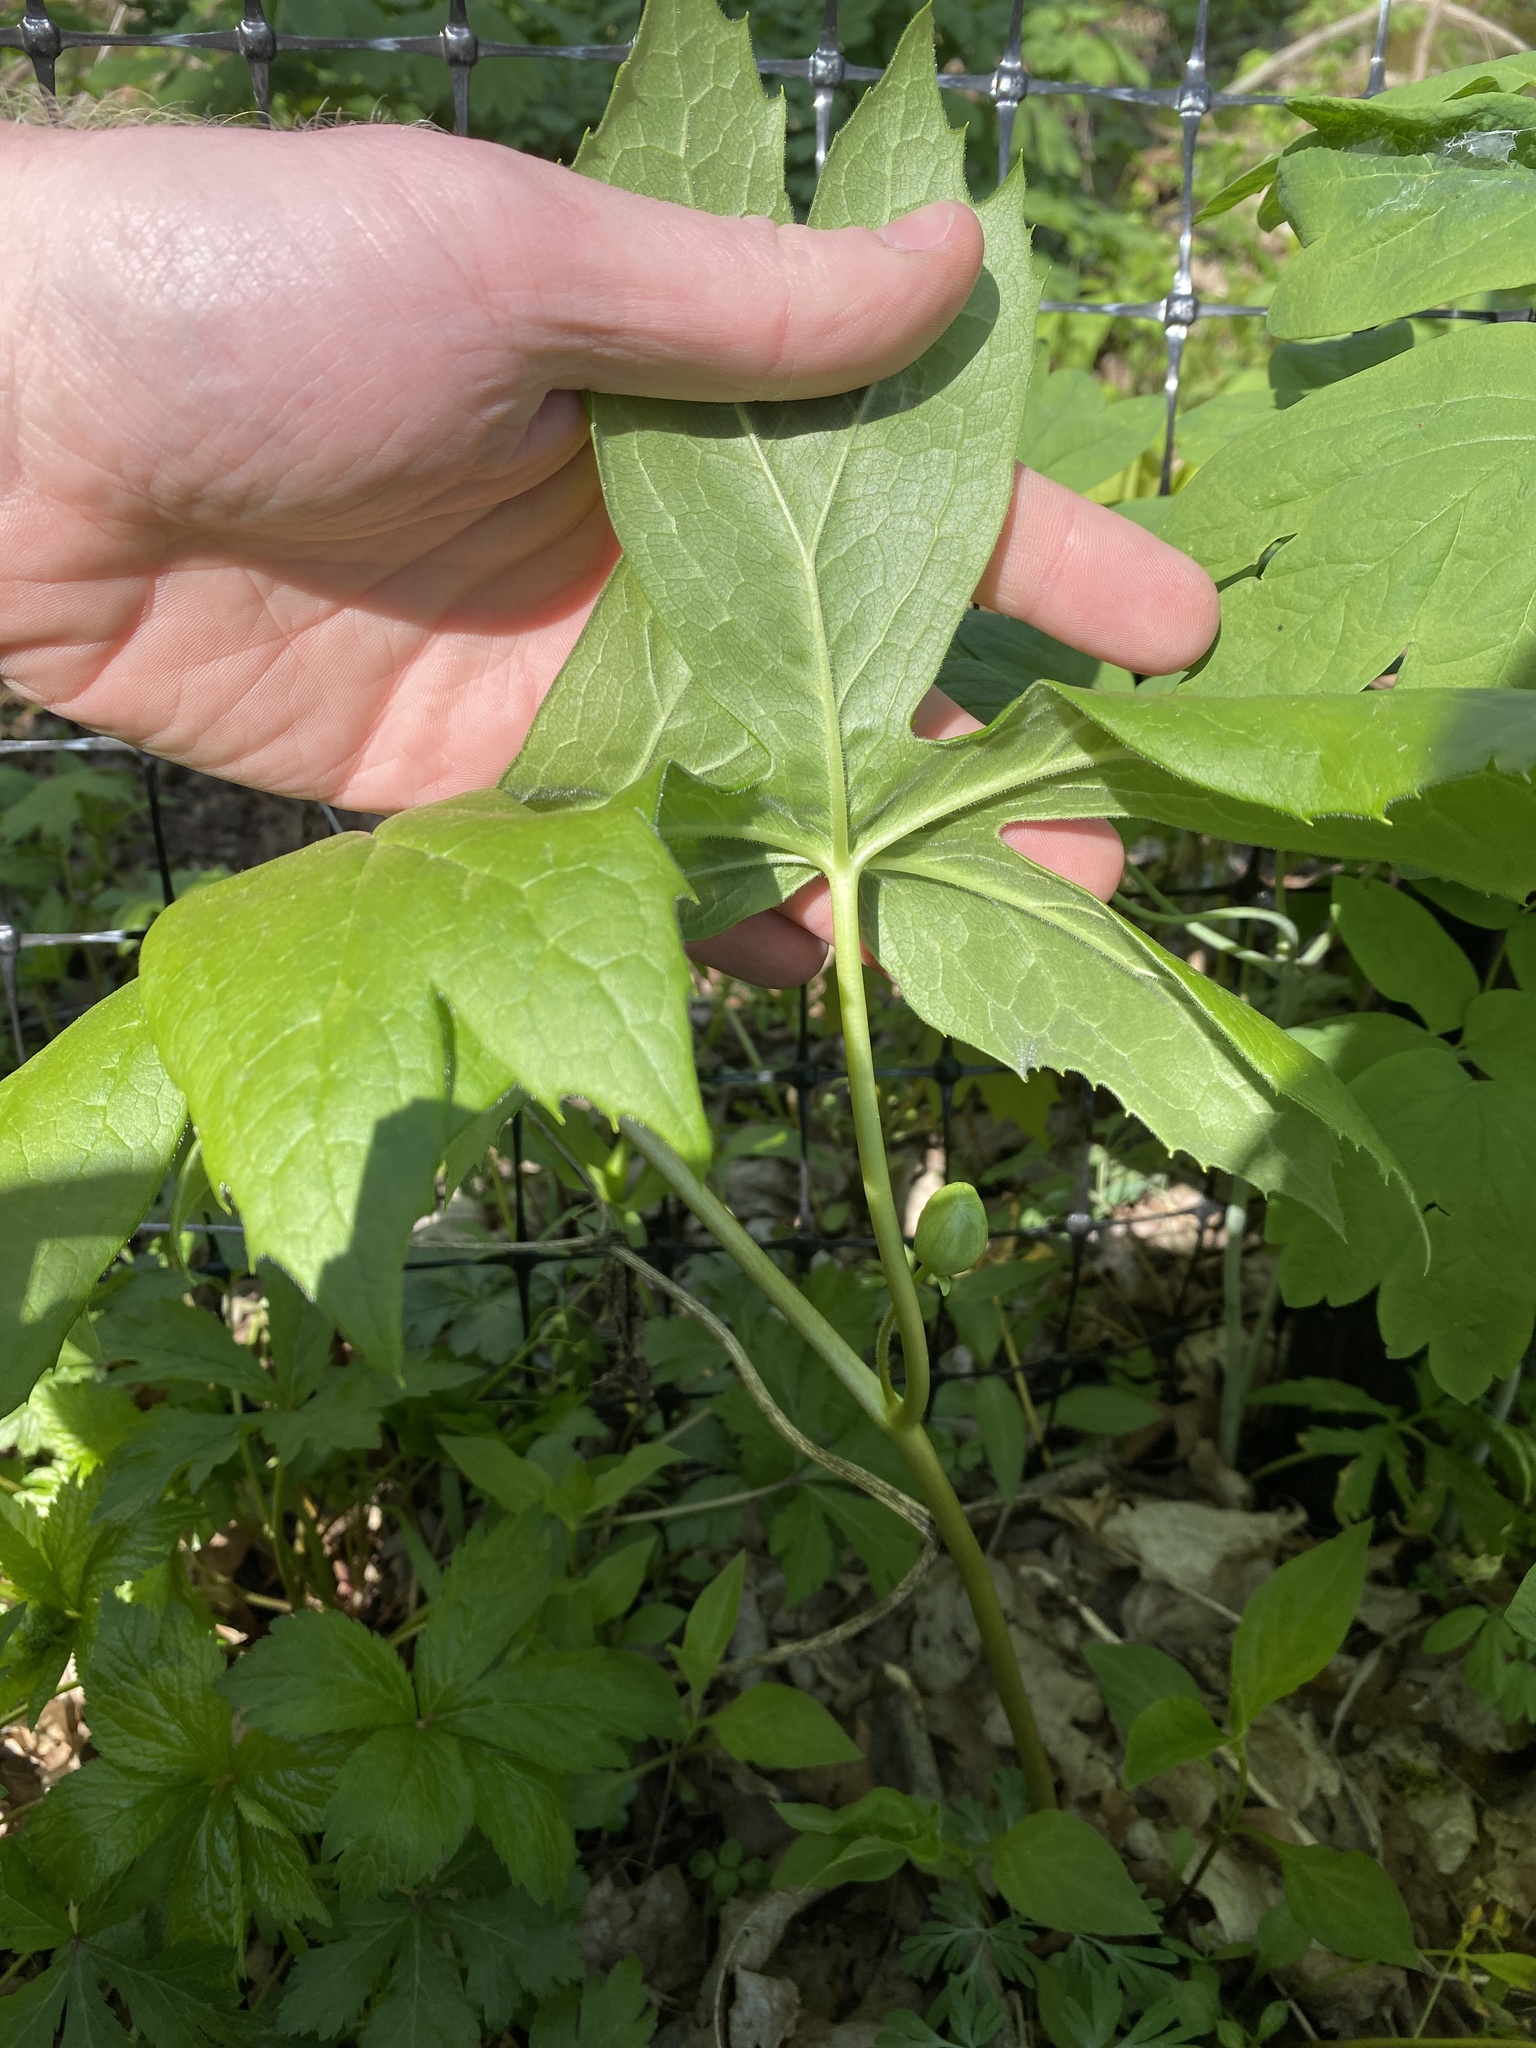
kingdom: Plantae
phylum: Tracheophyta
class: Magnoliopsida
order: Ranunculales
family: Berberidaceae
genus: Podophyllum
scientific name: Podophyllum peltatum
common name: Wild mandrake
